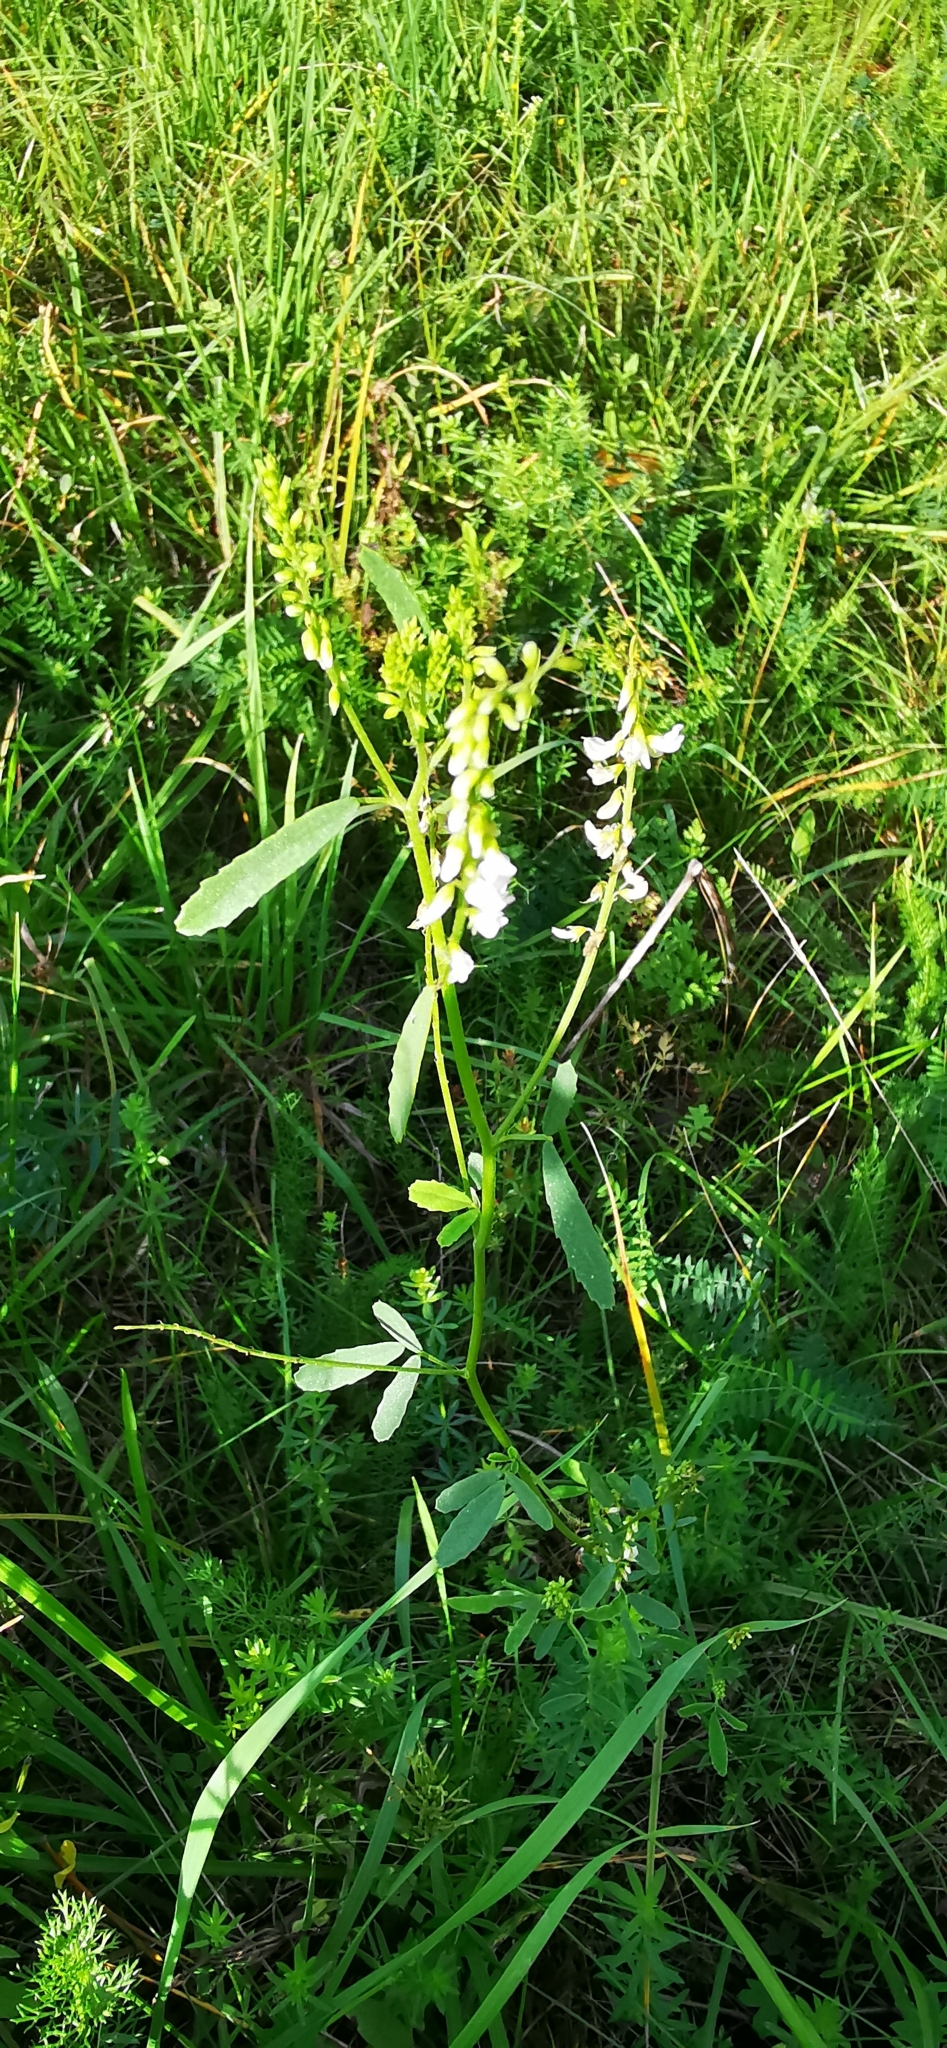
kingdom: Plantae
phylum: Tracheophyta
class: Magnoliopsida
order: Fabales
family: Fabaceae
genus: Melilotus
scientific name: Melilotus albus
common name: White melilot
